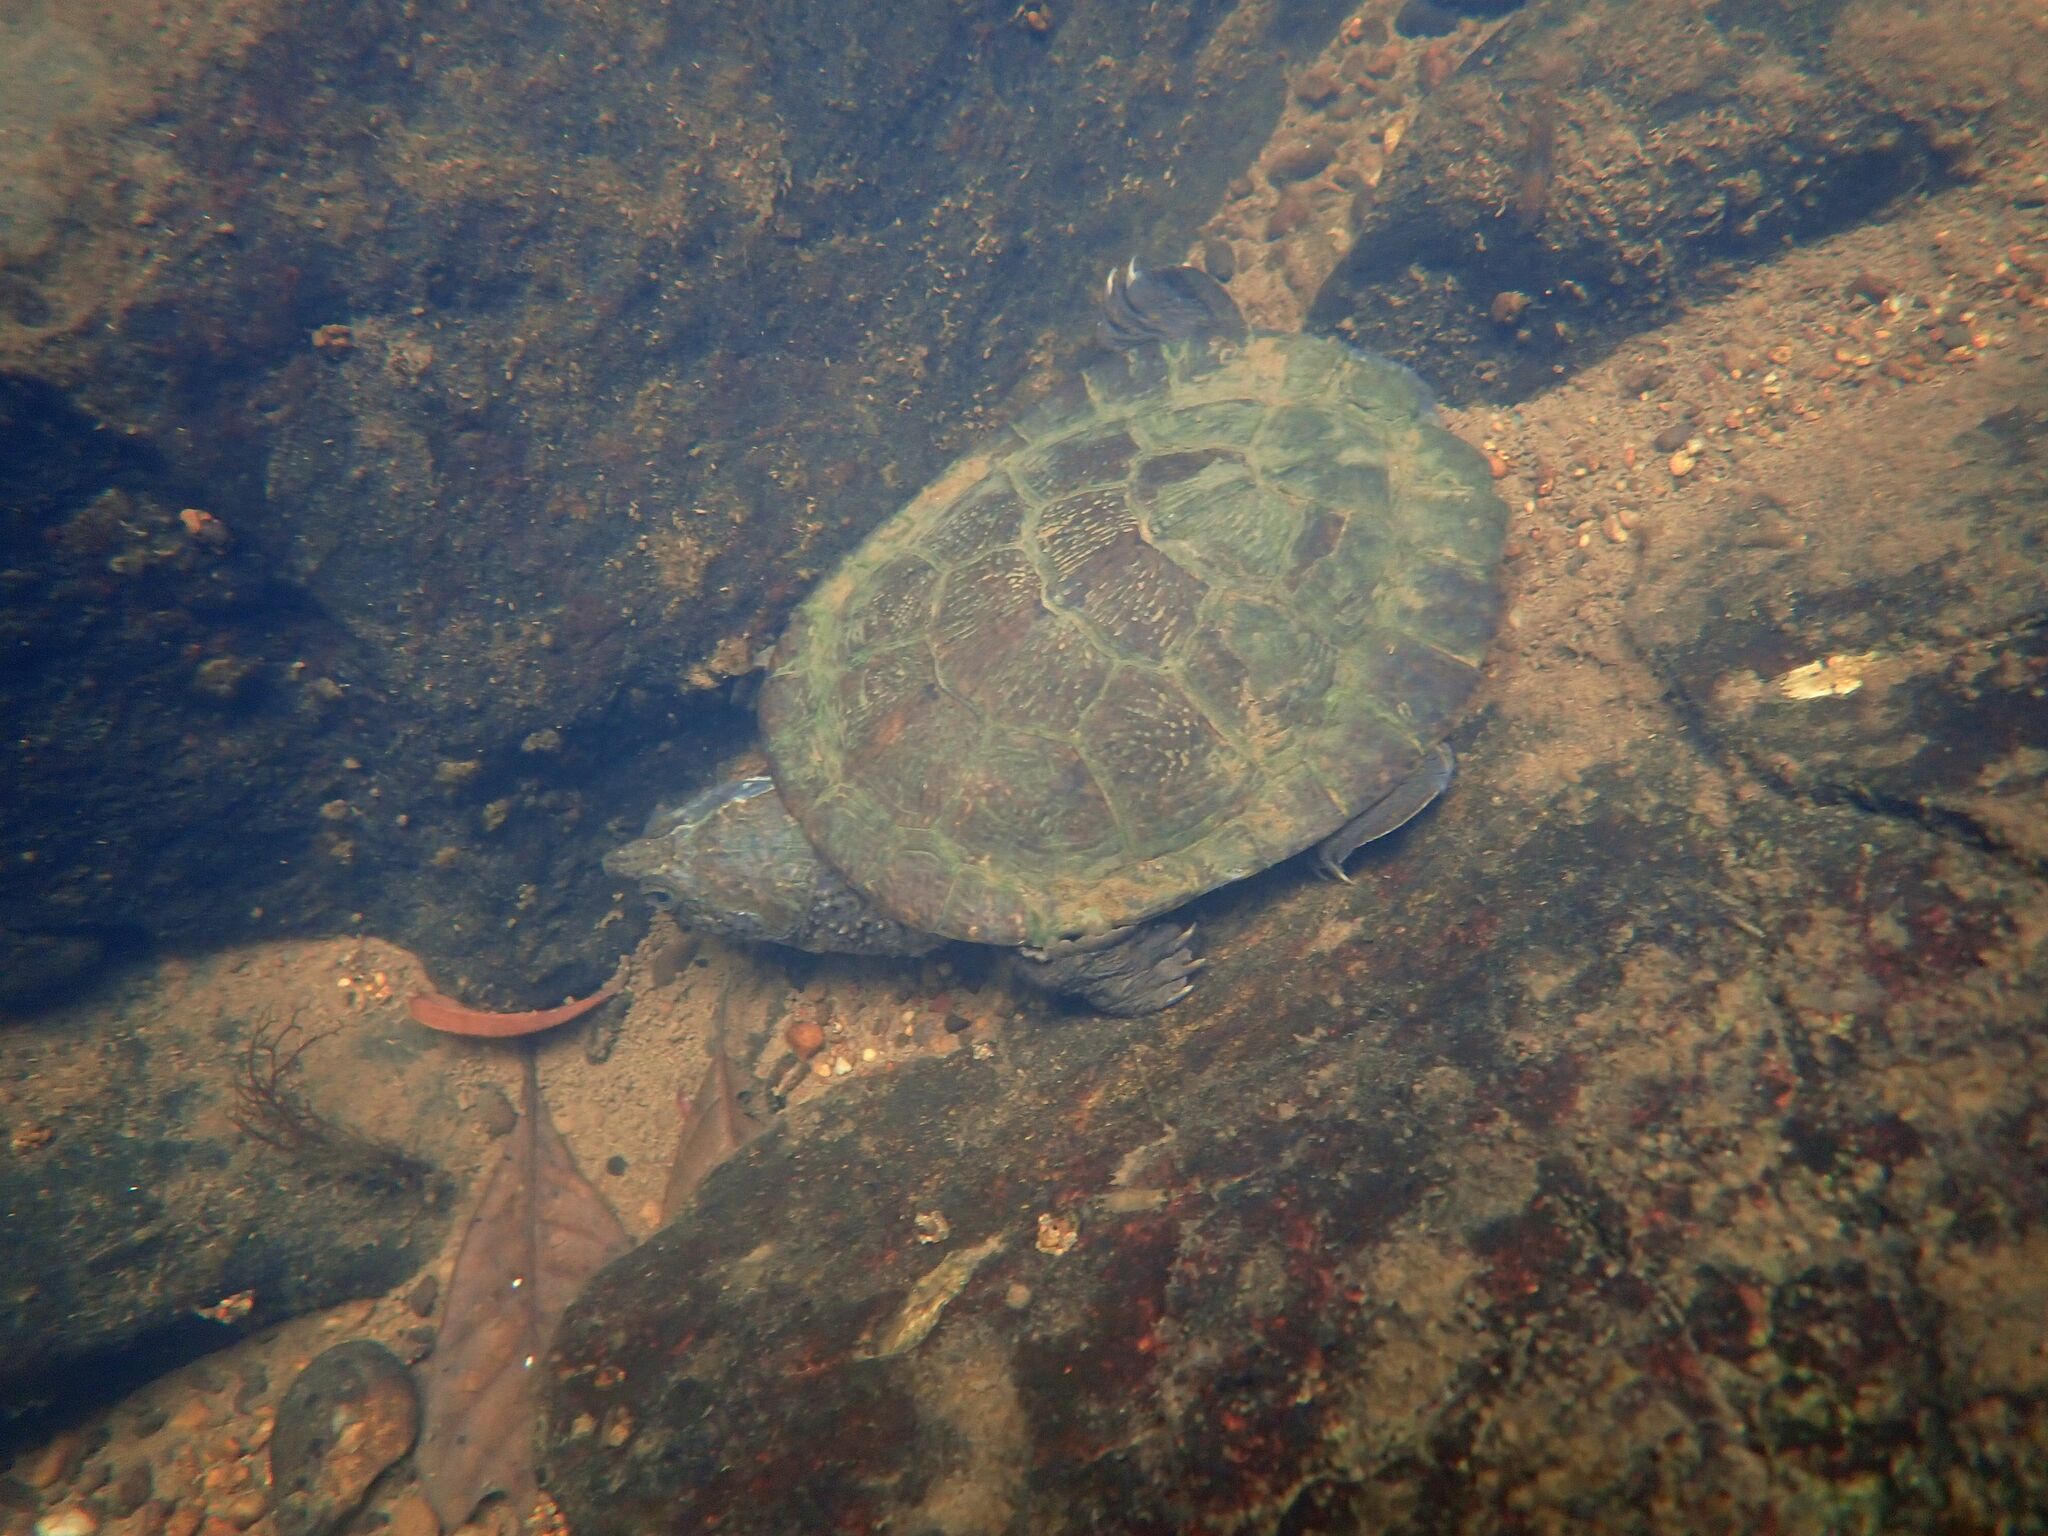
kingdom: Animalia
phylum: Chordata
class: Testudines
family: Chelidae
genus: Myuchelys
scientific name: Myuchelys latisternum
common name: Serrated snapping turtle
